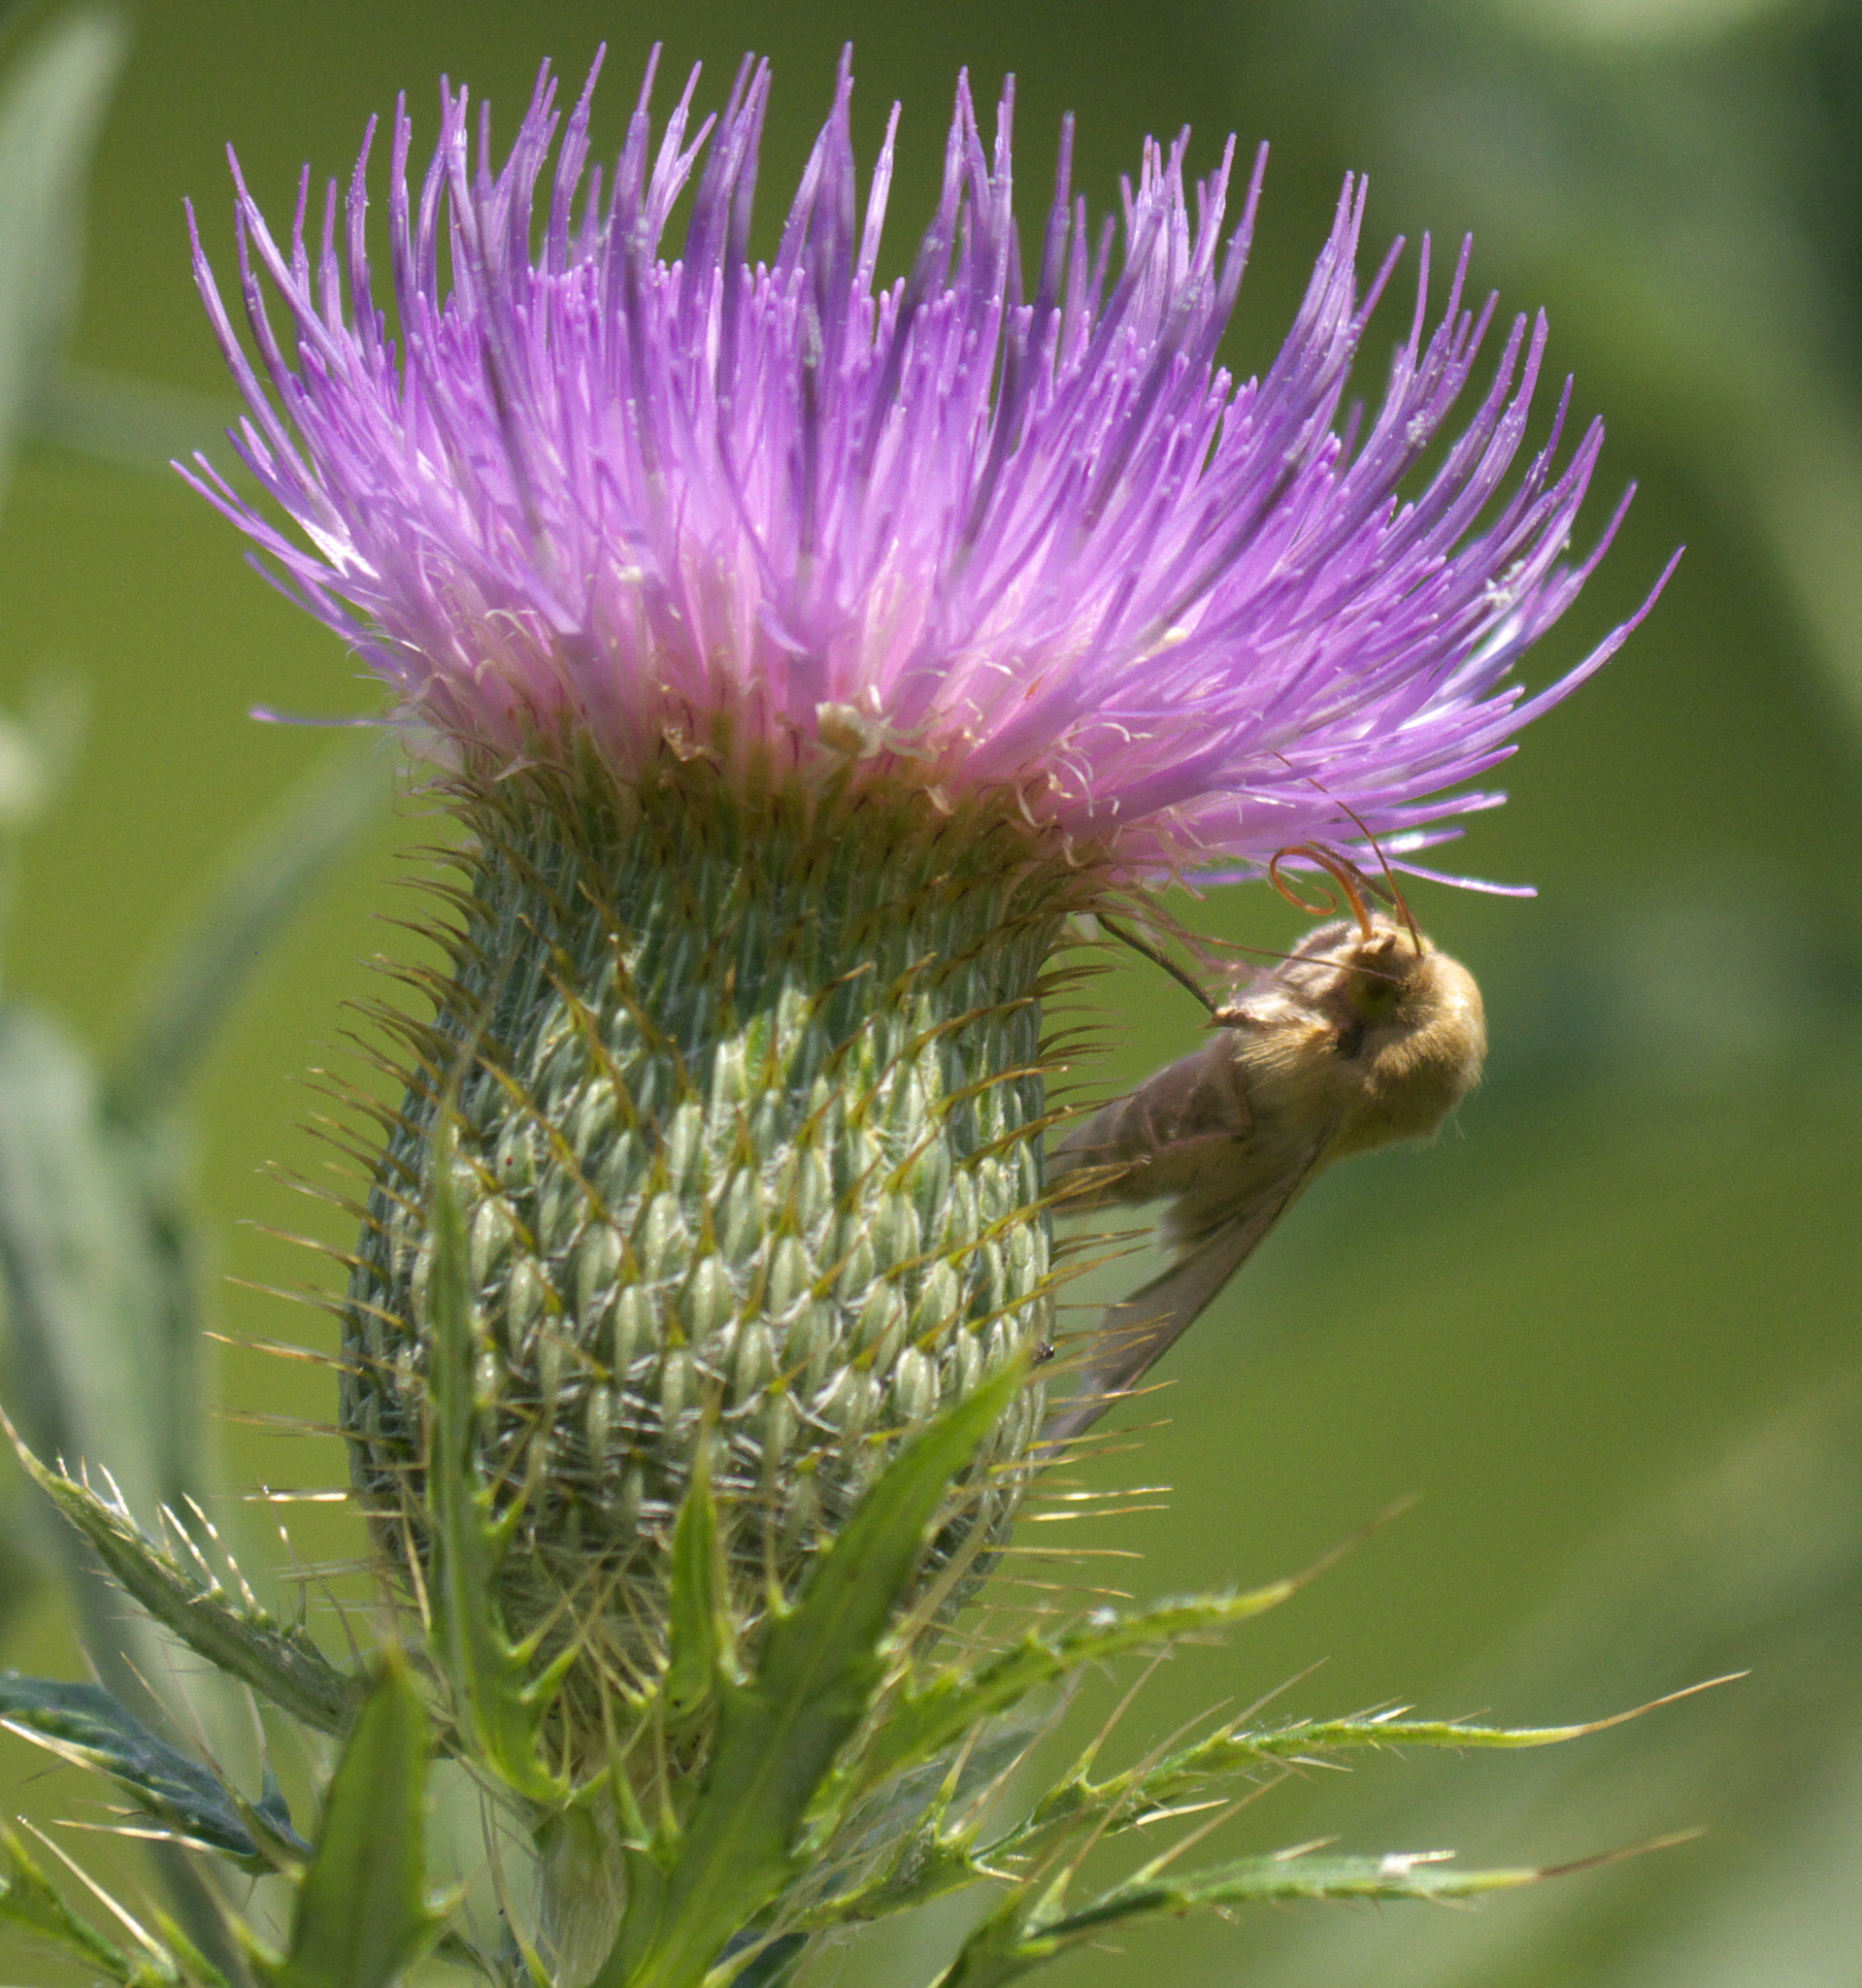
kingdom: Animalia
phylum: Arthropoda
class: Insecta
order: Lepidoptera
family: Noctuidae
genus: Helicoverpa
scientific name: Helicoverpa zea
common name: Bollworm
